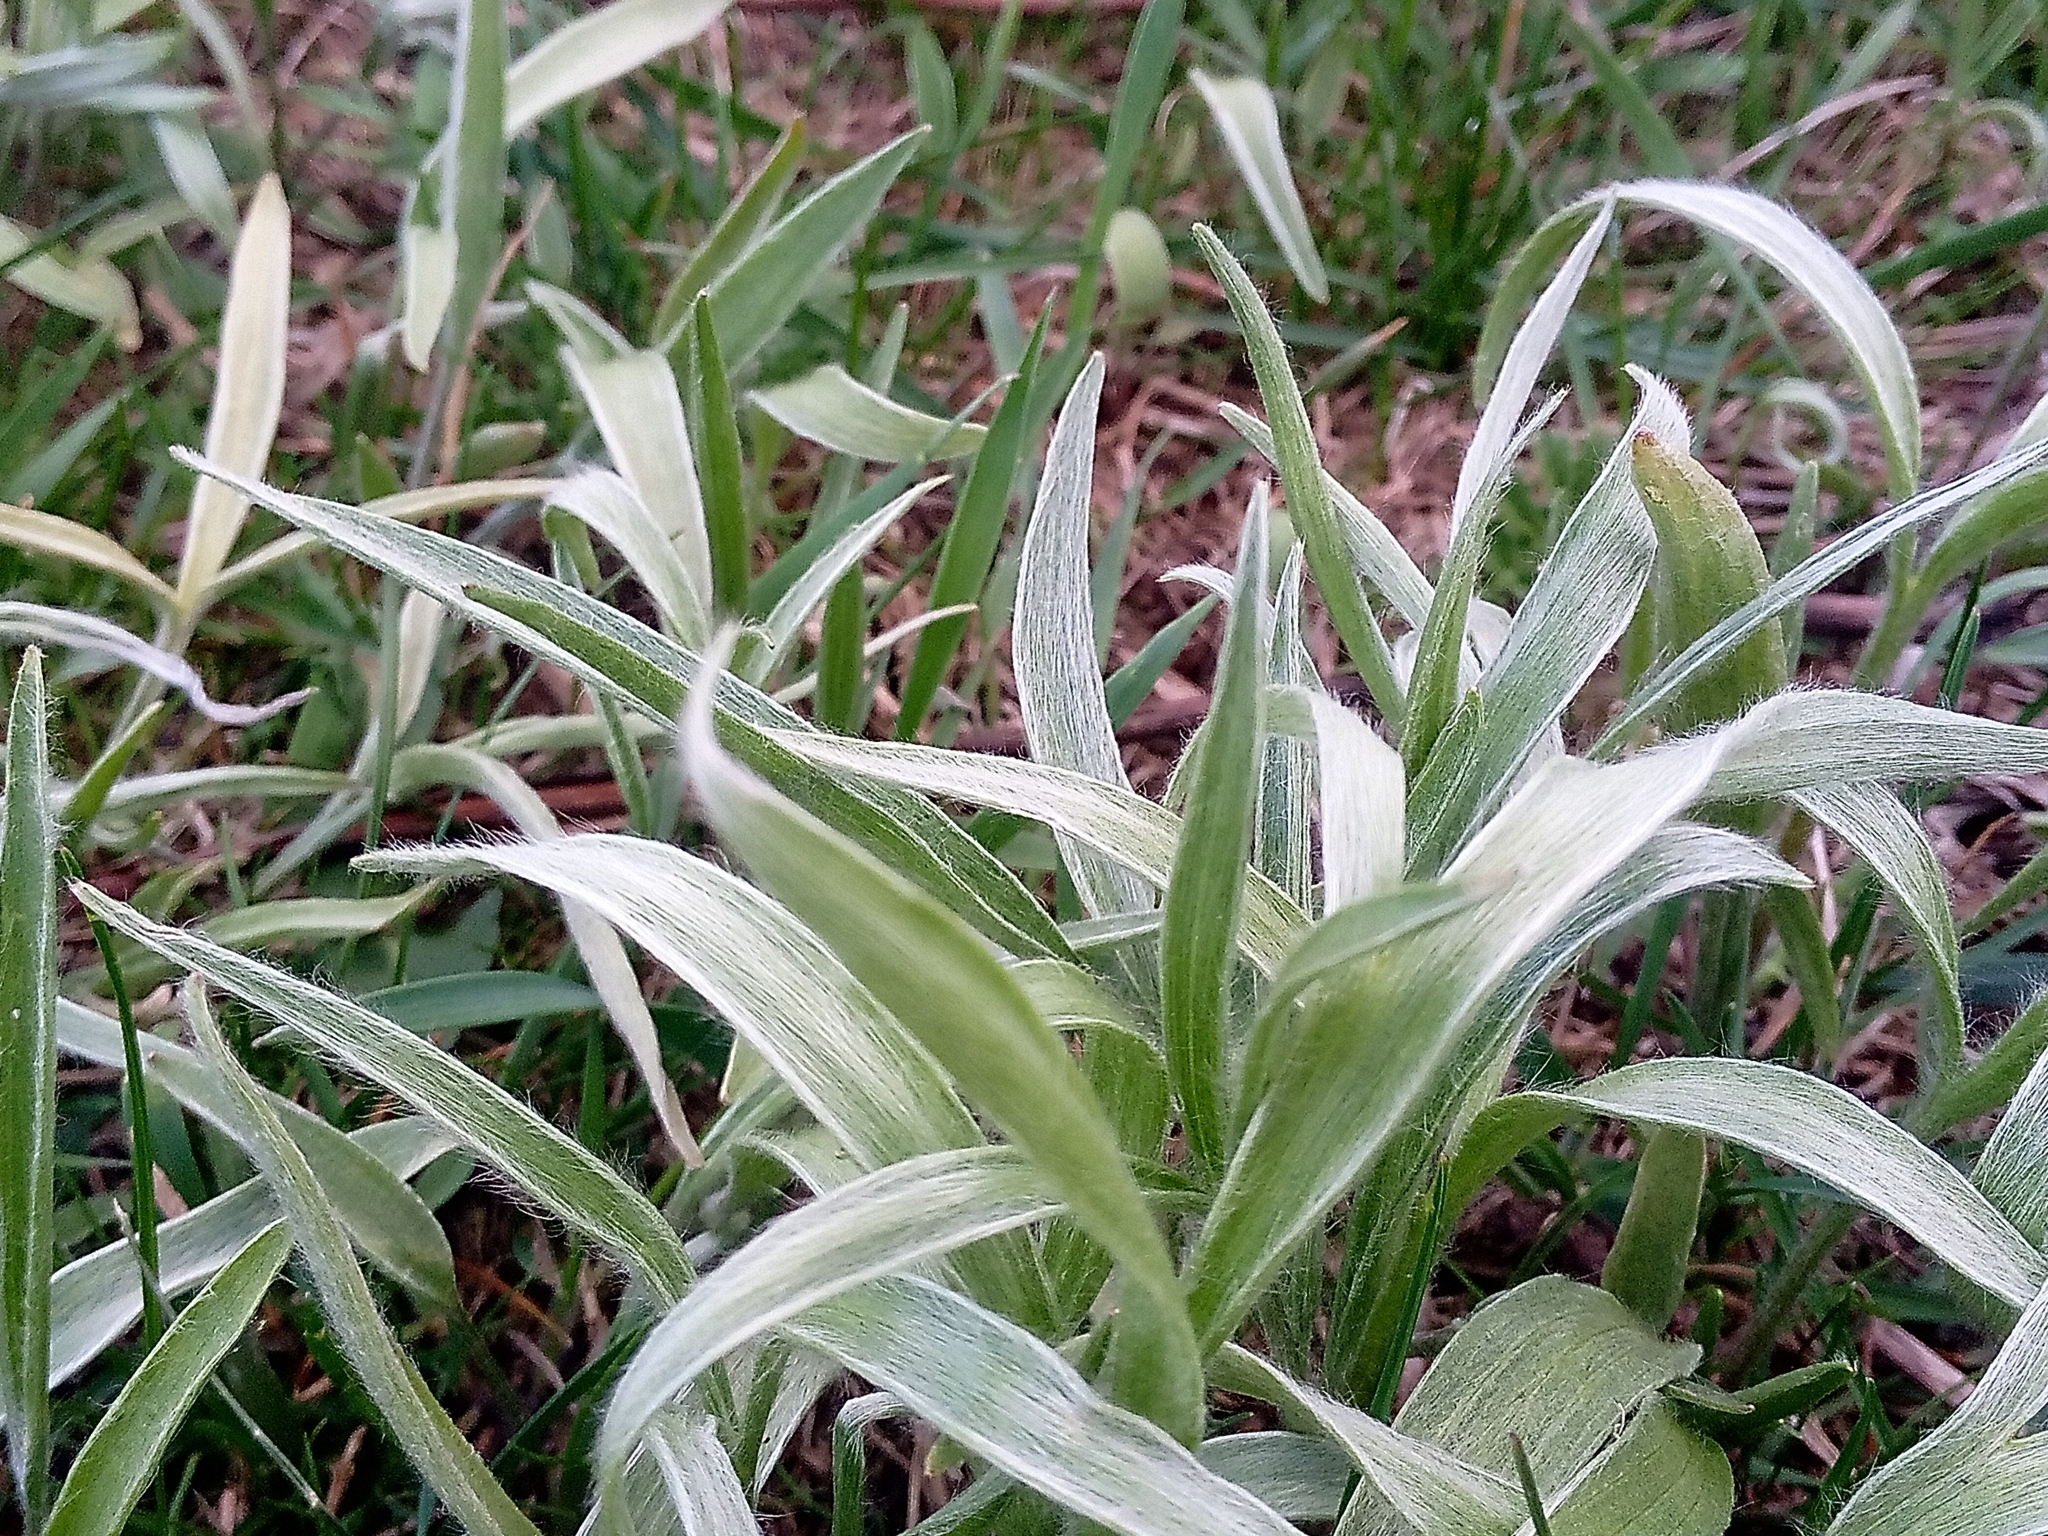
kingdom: Plantae
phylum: Tracheophyta
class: Magnoliopsida
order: Ranunculales
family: Ranunculaceae
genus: Ranunculus
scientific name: Ranunculus illyricus
